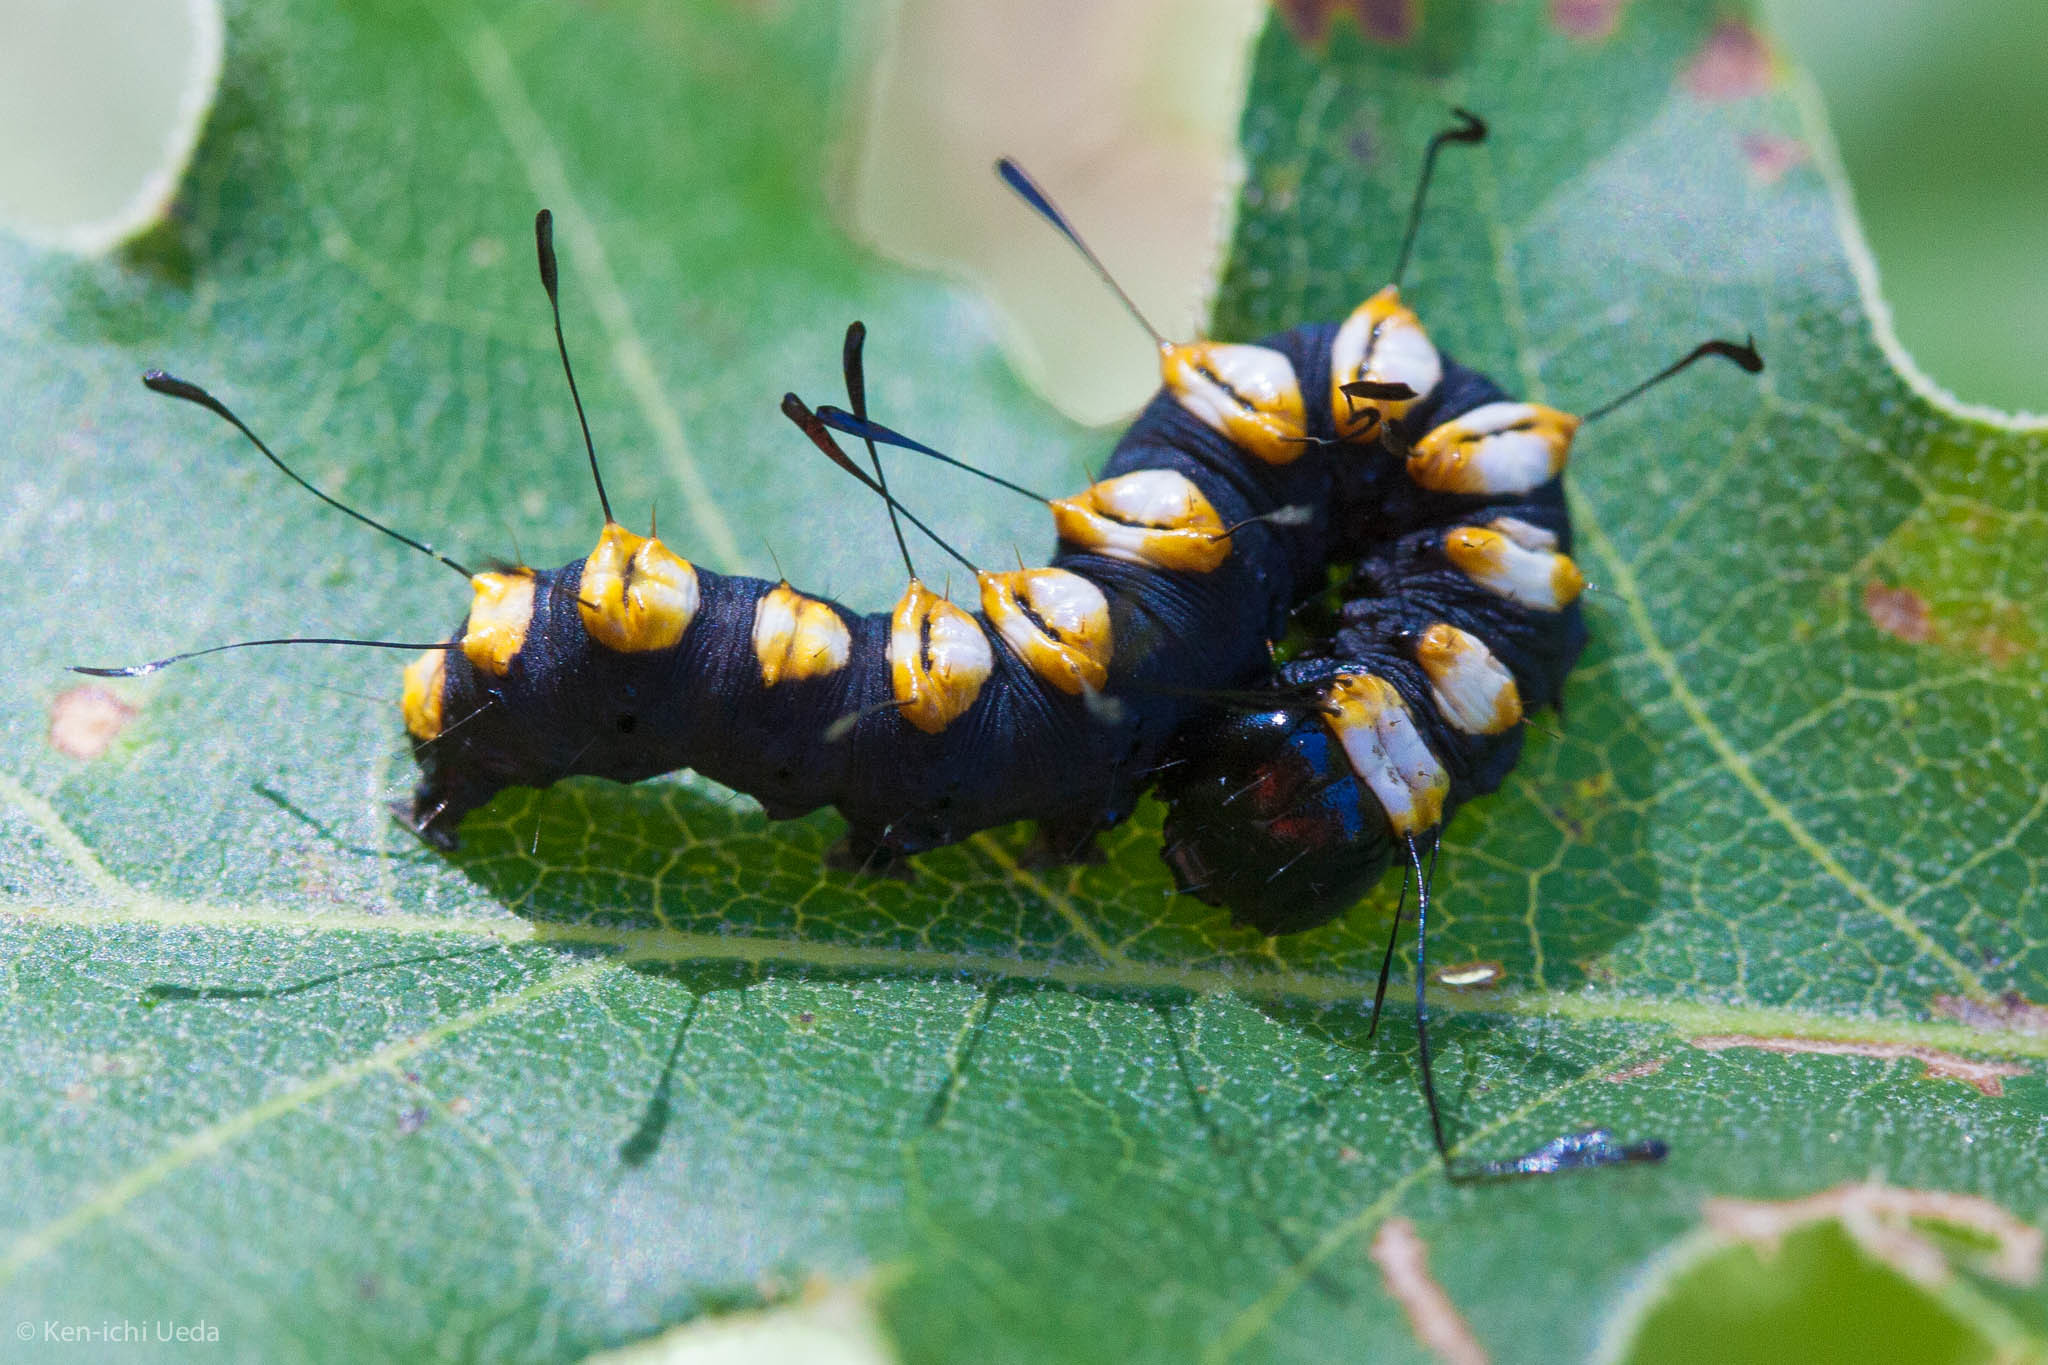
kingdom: Animalia
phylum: Arthropoda
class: Insecta
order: Lepidoptera
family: Noctuidae
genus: Acronicta
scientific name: Acronicta funeralis
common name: Funerary dagger
